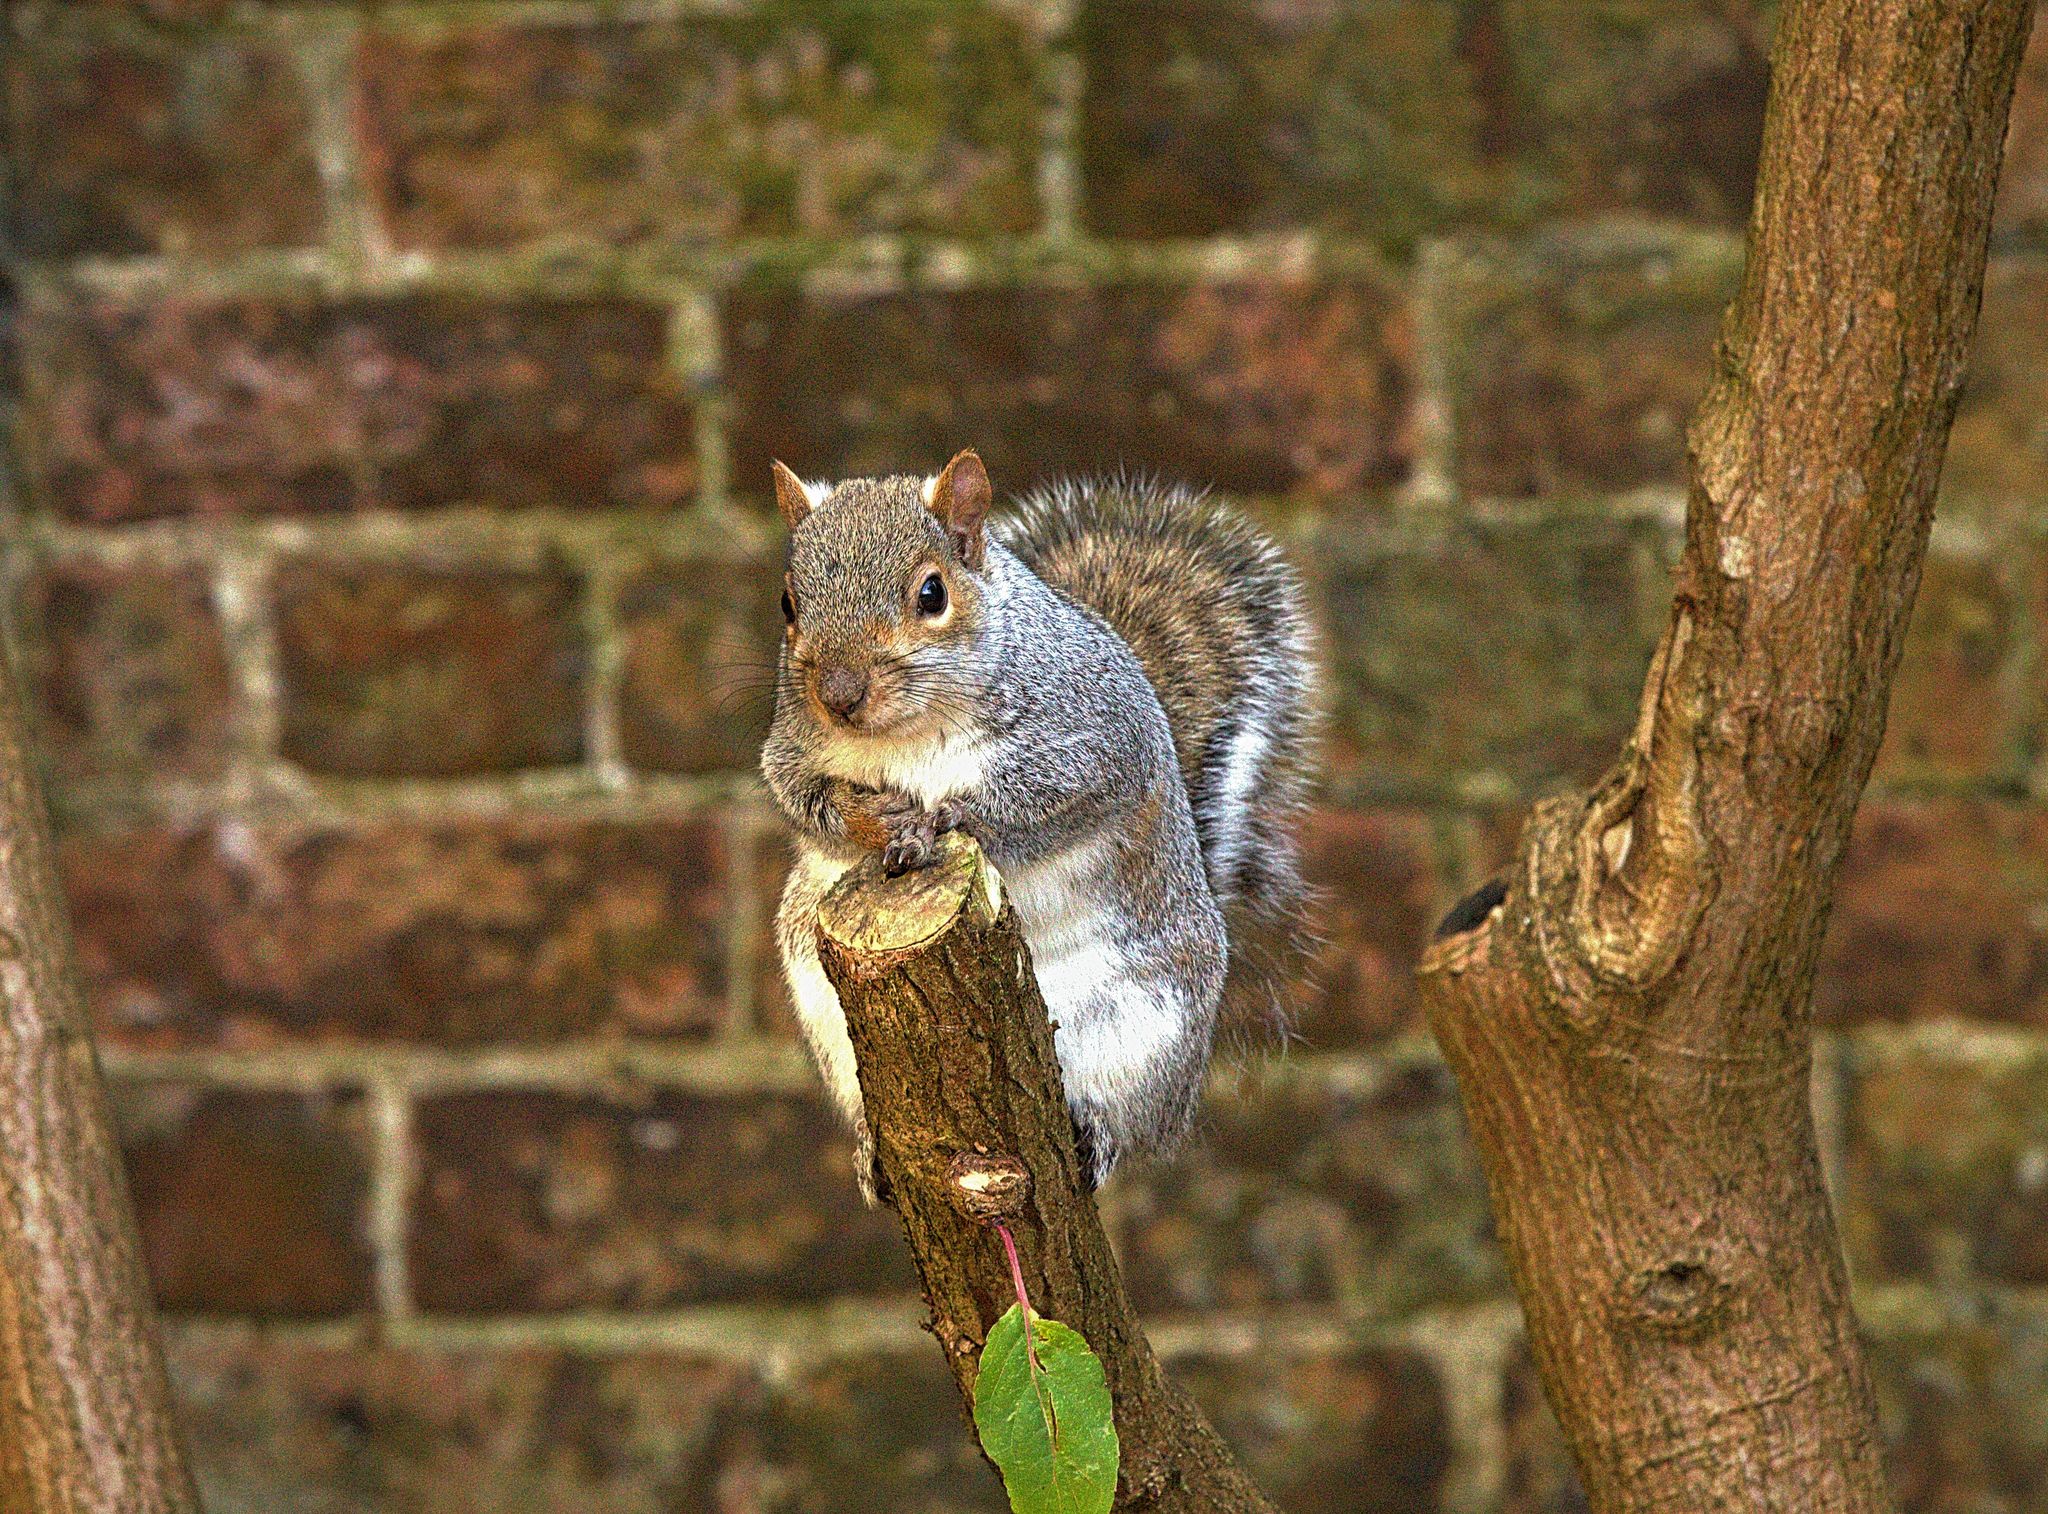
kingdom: Animalia
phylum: Chordata
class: Mammalia
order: Rodentia
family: Sciuridae
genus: Sciurus
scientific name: Sciurus carolinensis
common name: Eastern gray squirrel
